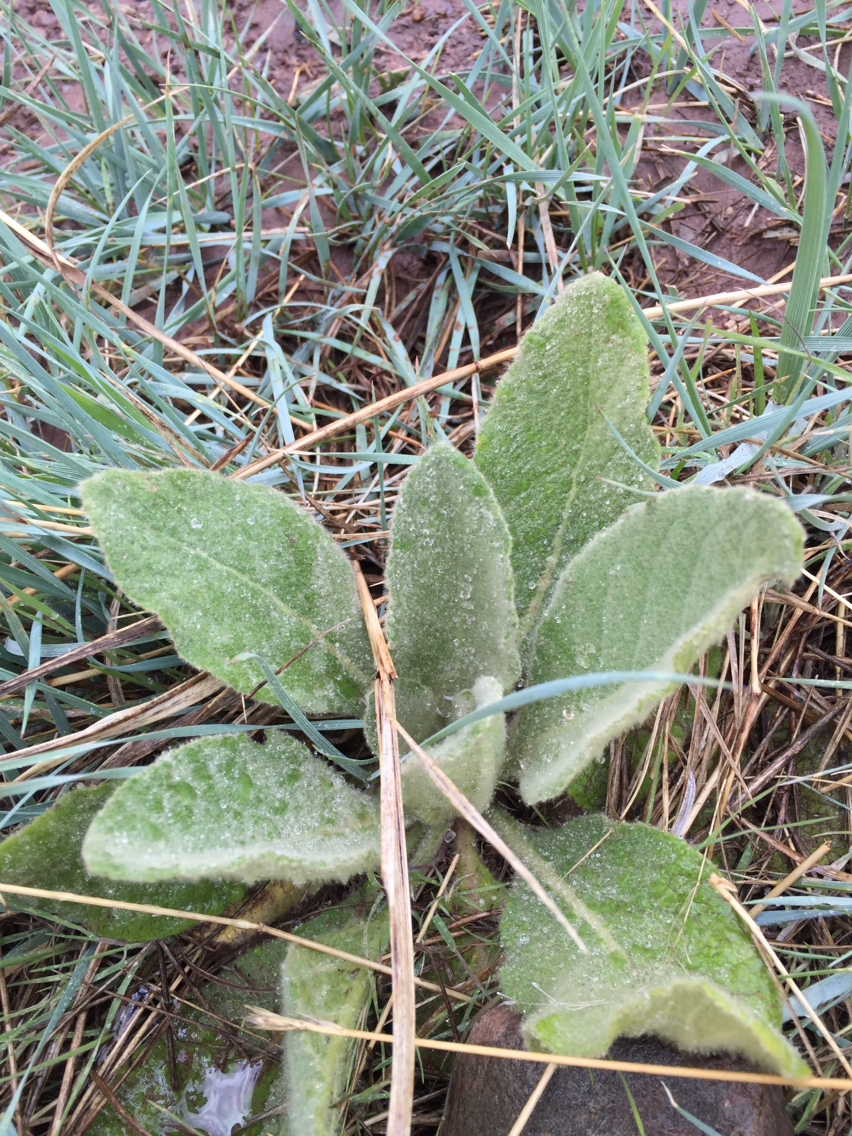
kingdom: Plantae
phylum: Tracheophyta
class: Magnoliopsida
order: Lamiales
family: Scrophulariaceae
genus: Verbascum
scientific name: Verbascum thapsus
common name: Common mullein
